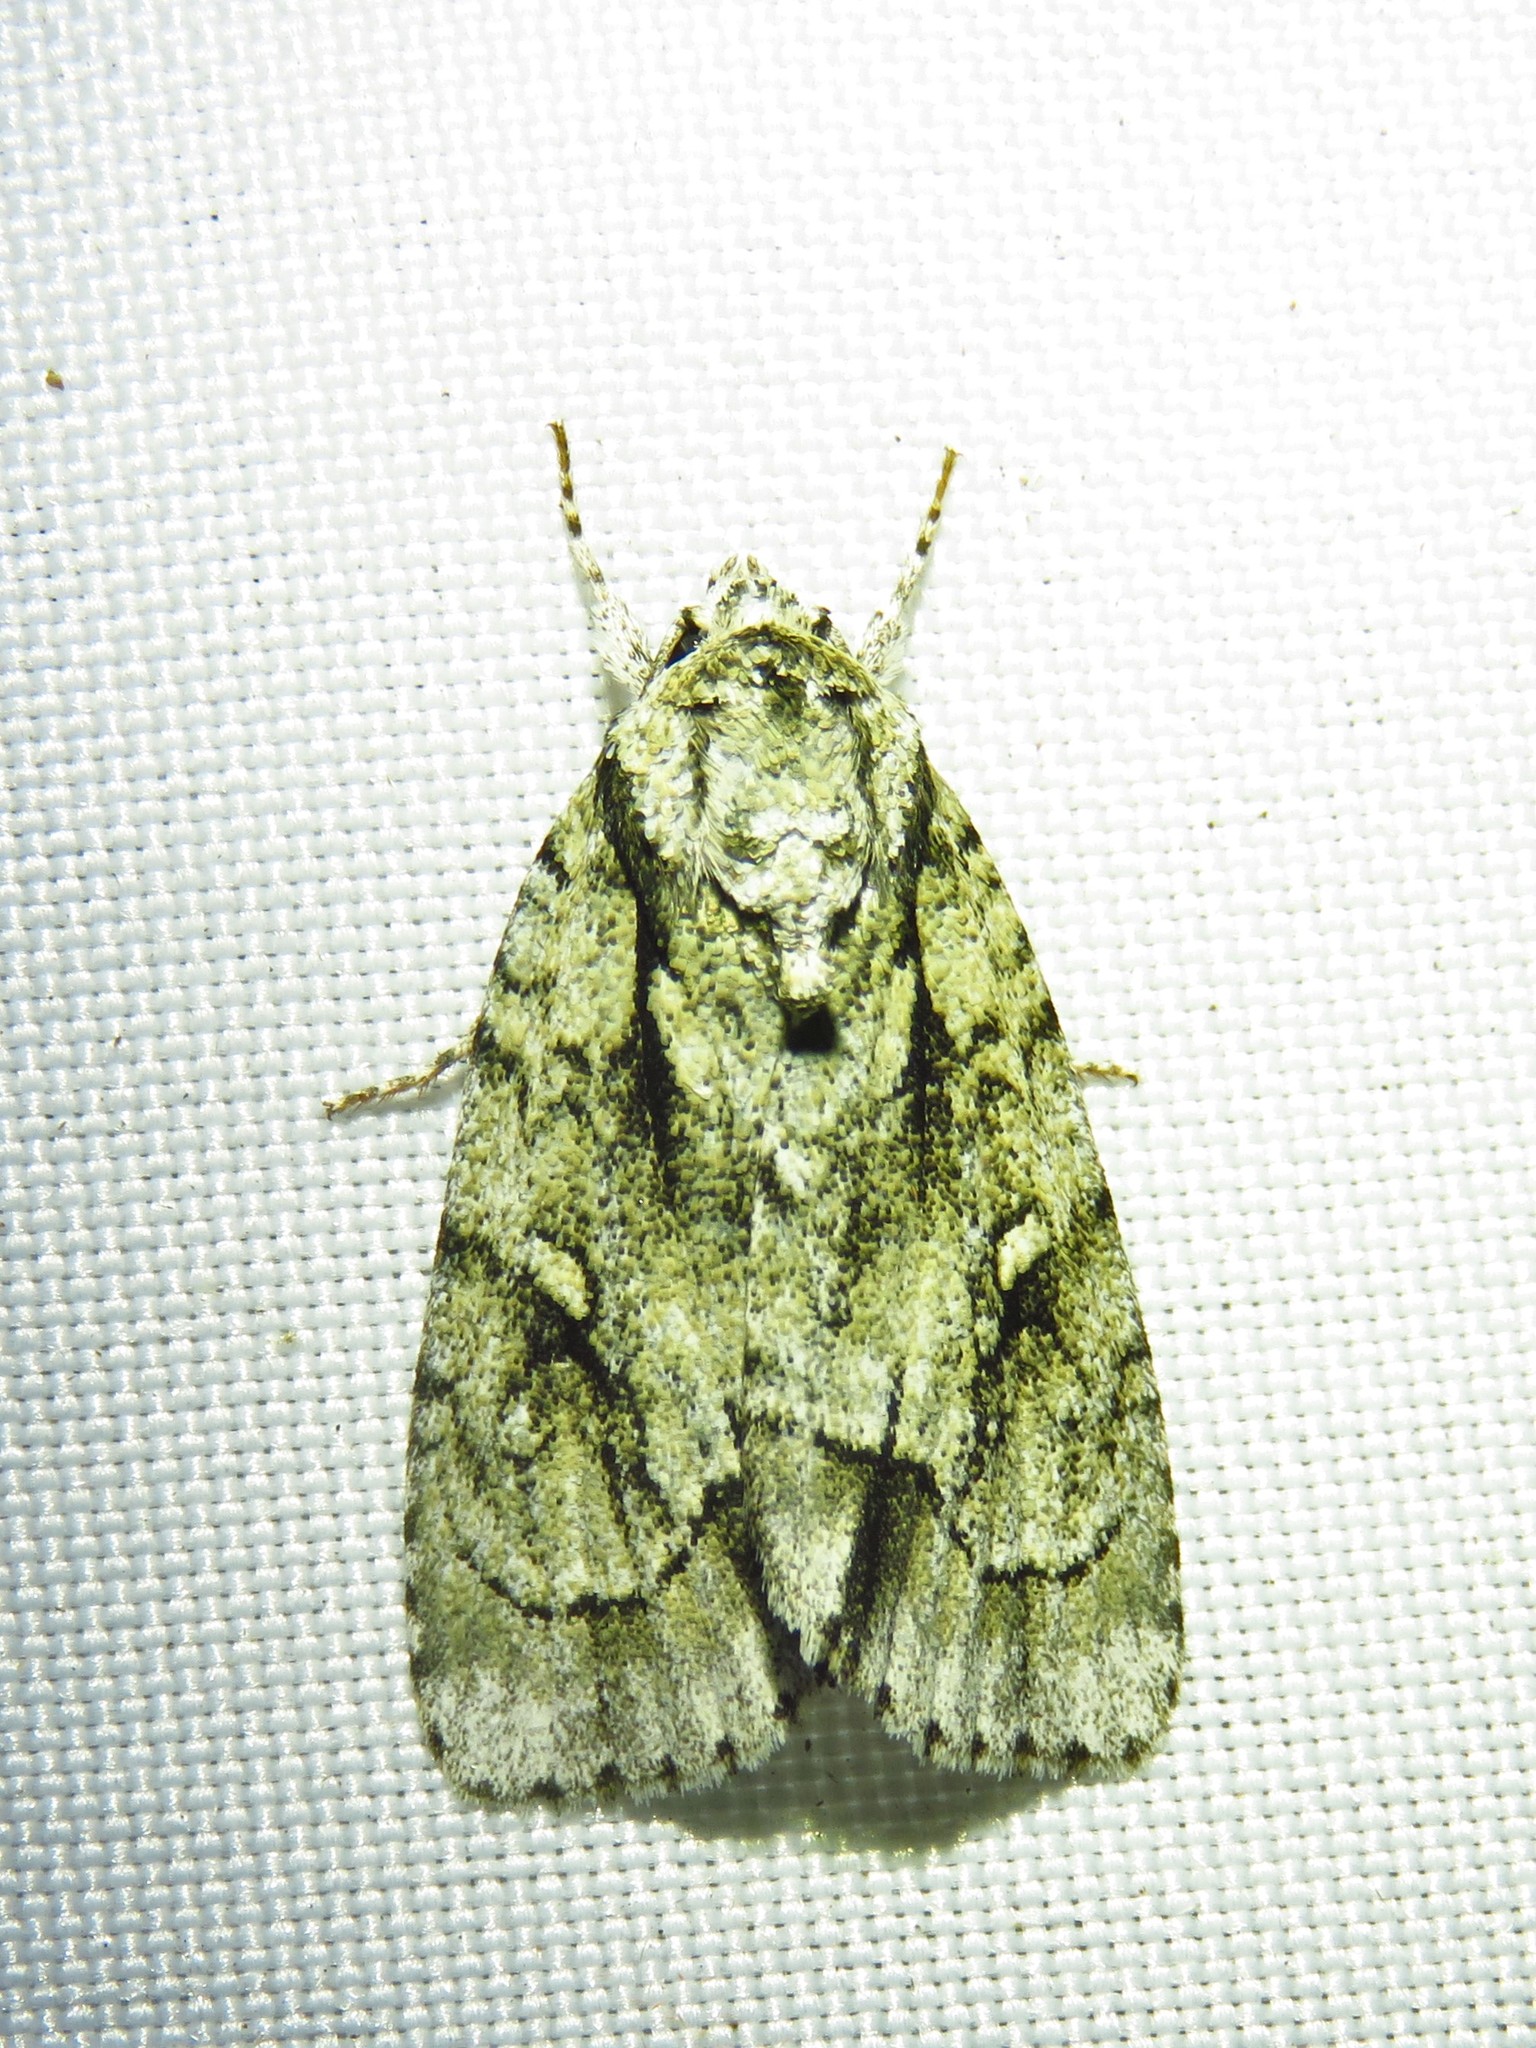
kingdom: Animalia
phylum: Arthropoda
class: Insecta
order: Lepidoptera
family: Noctuidae
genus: Acronicta
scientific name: Acronicta vinnula
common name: Delightful dagger
